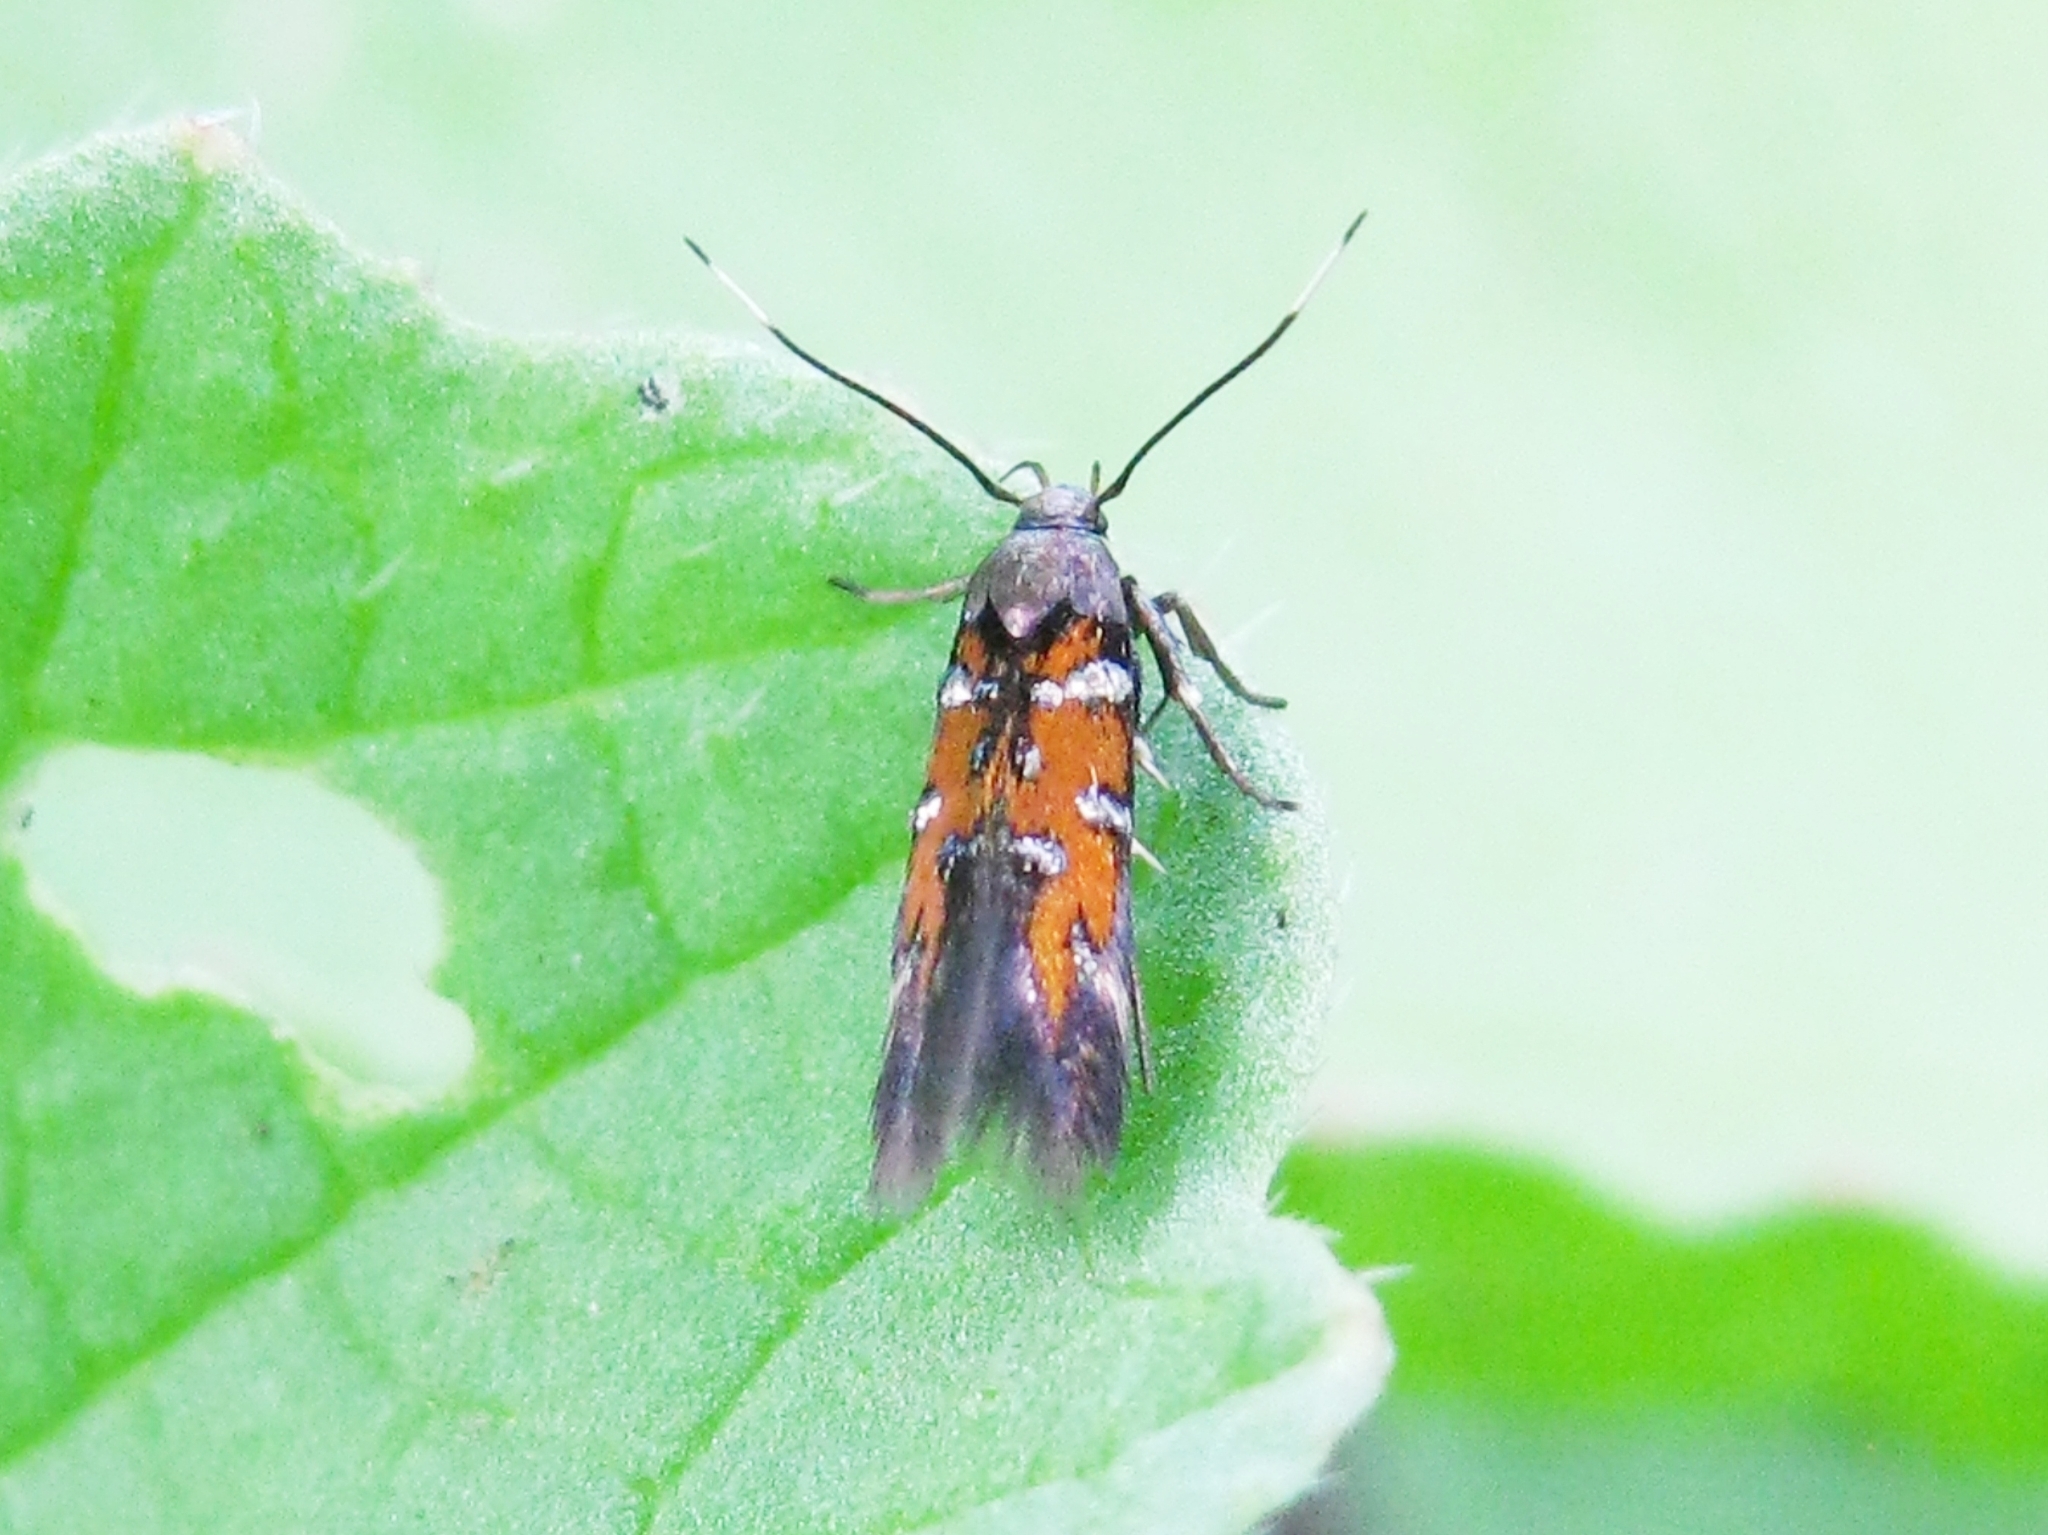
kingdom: Animalia
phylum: Arthropoda
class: Insecta
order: Lepidoptera
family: Cosmopterigidae
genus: Pancalia
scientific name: Pancalia
